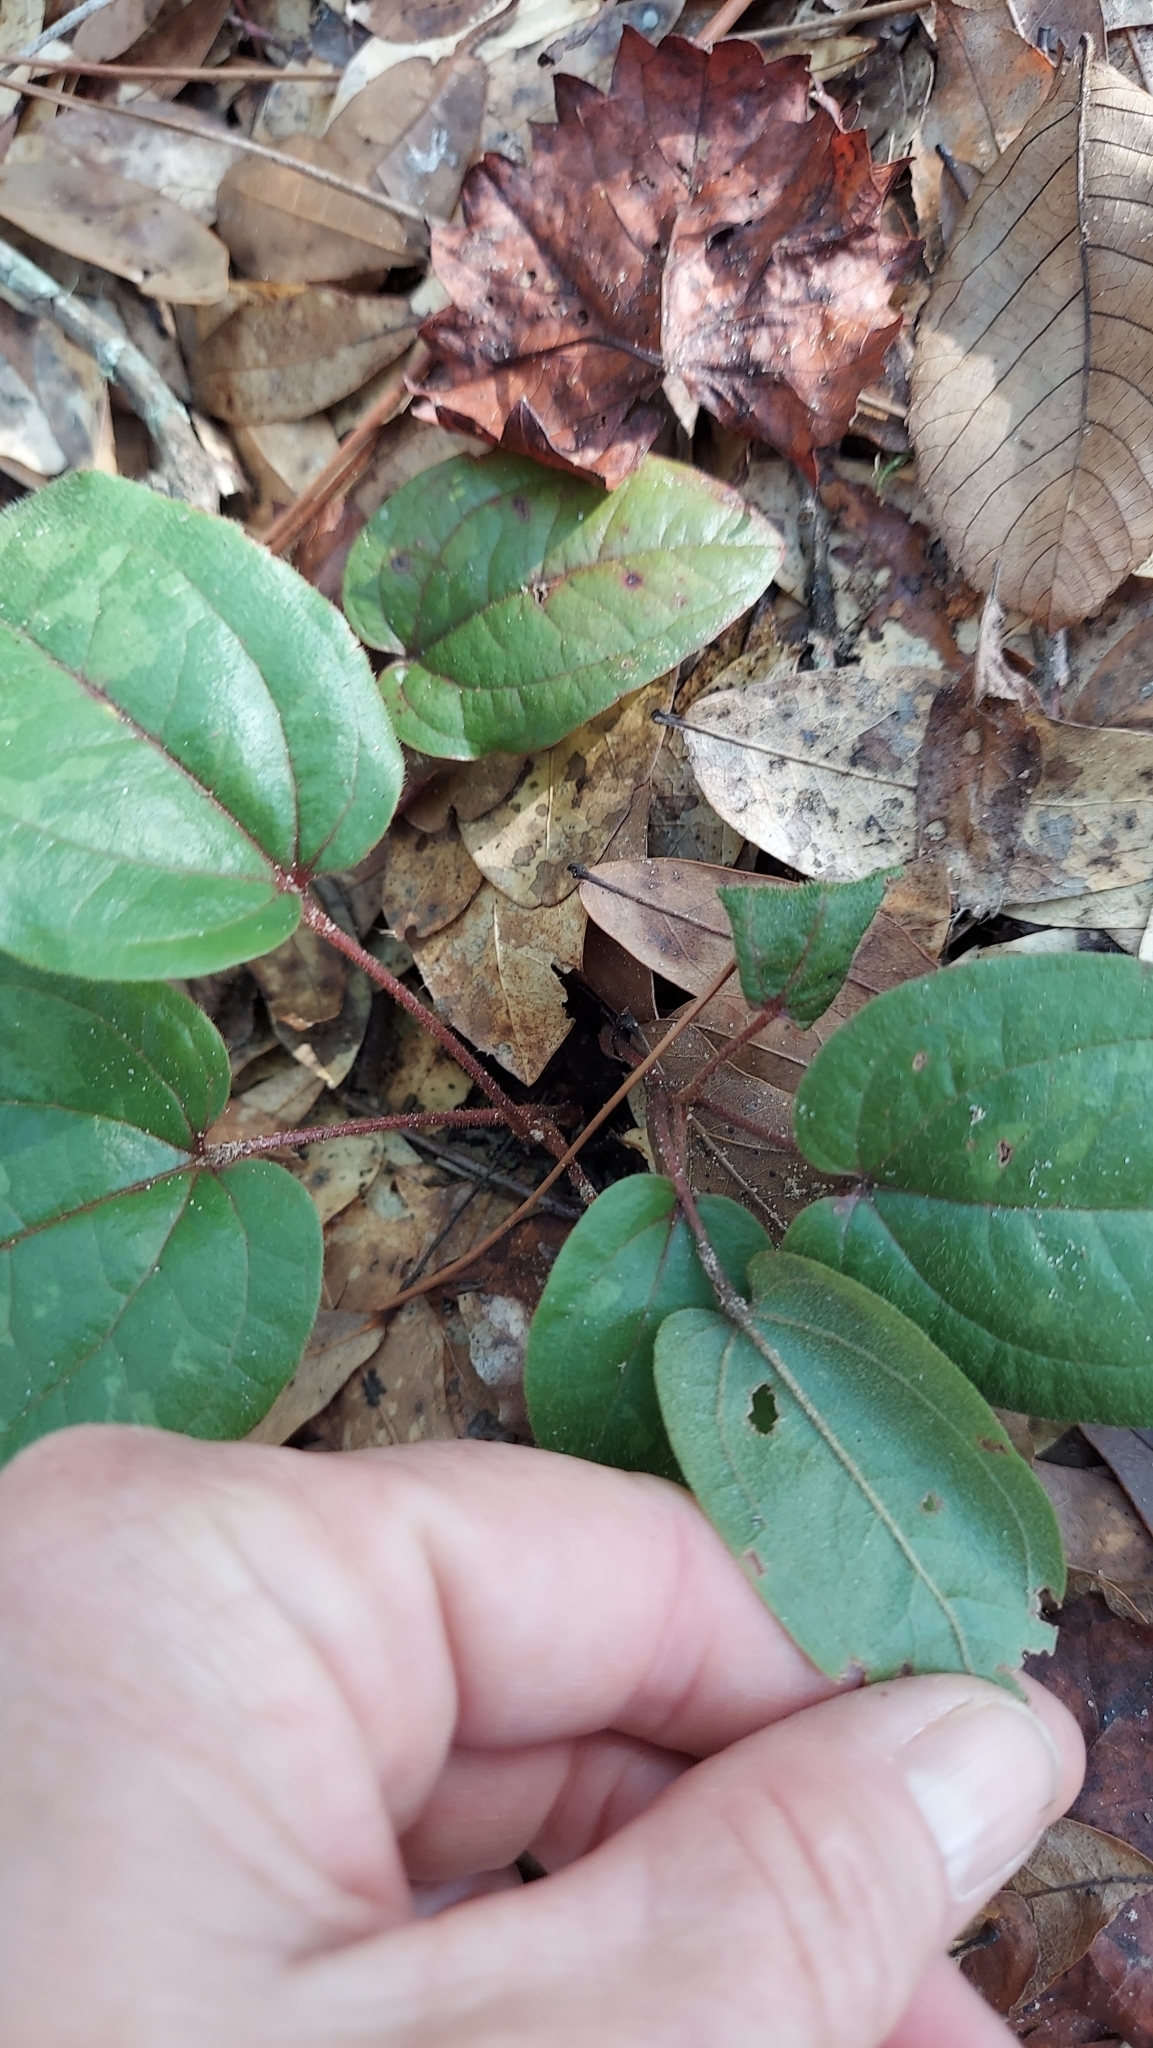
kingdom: Plantae
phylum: Tracheophyta
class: Liliopsida
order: Liliales
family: Smilacaceae
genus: Smilax
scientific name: Smilax pumila
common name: Sarsaparilla-vine
